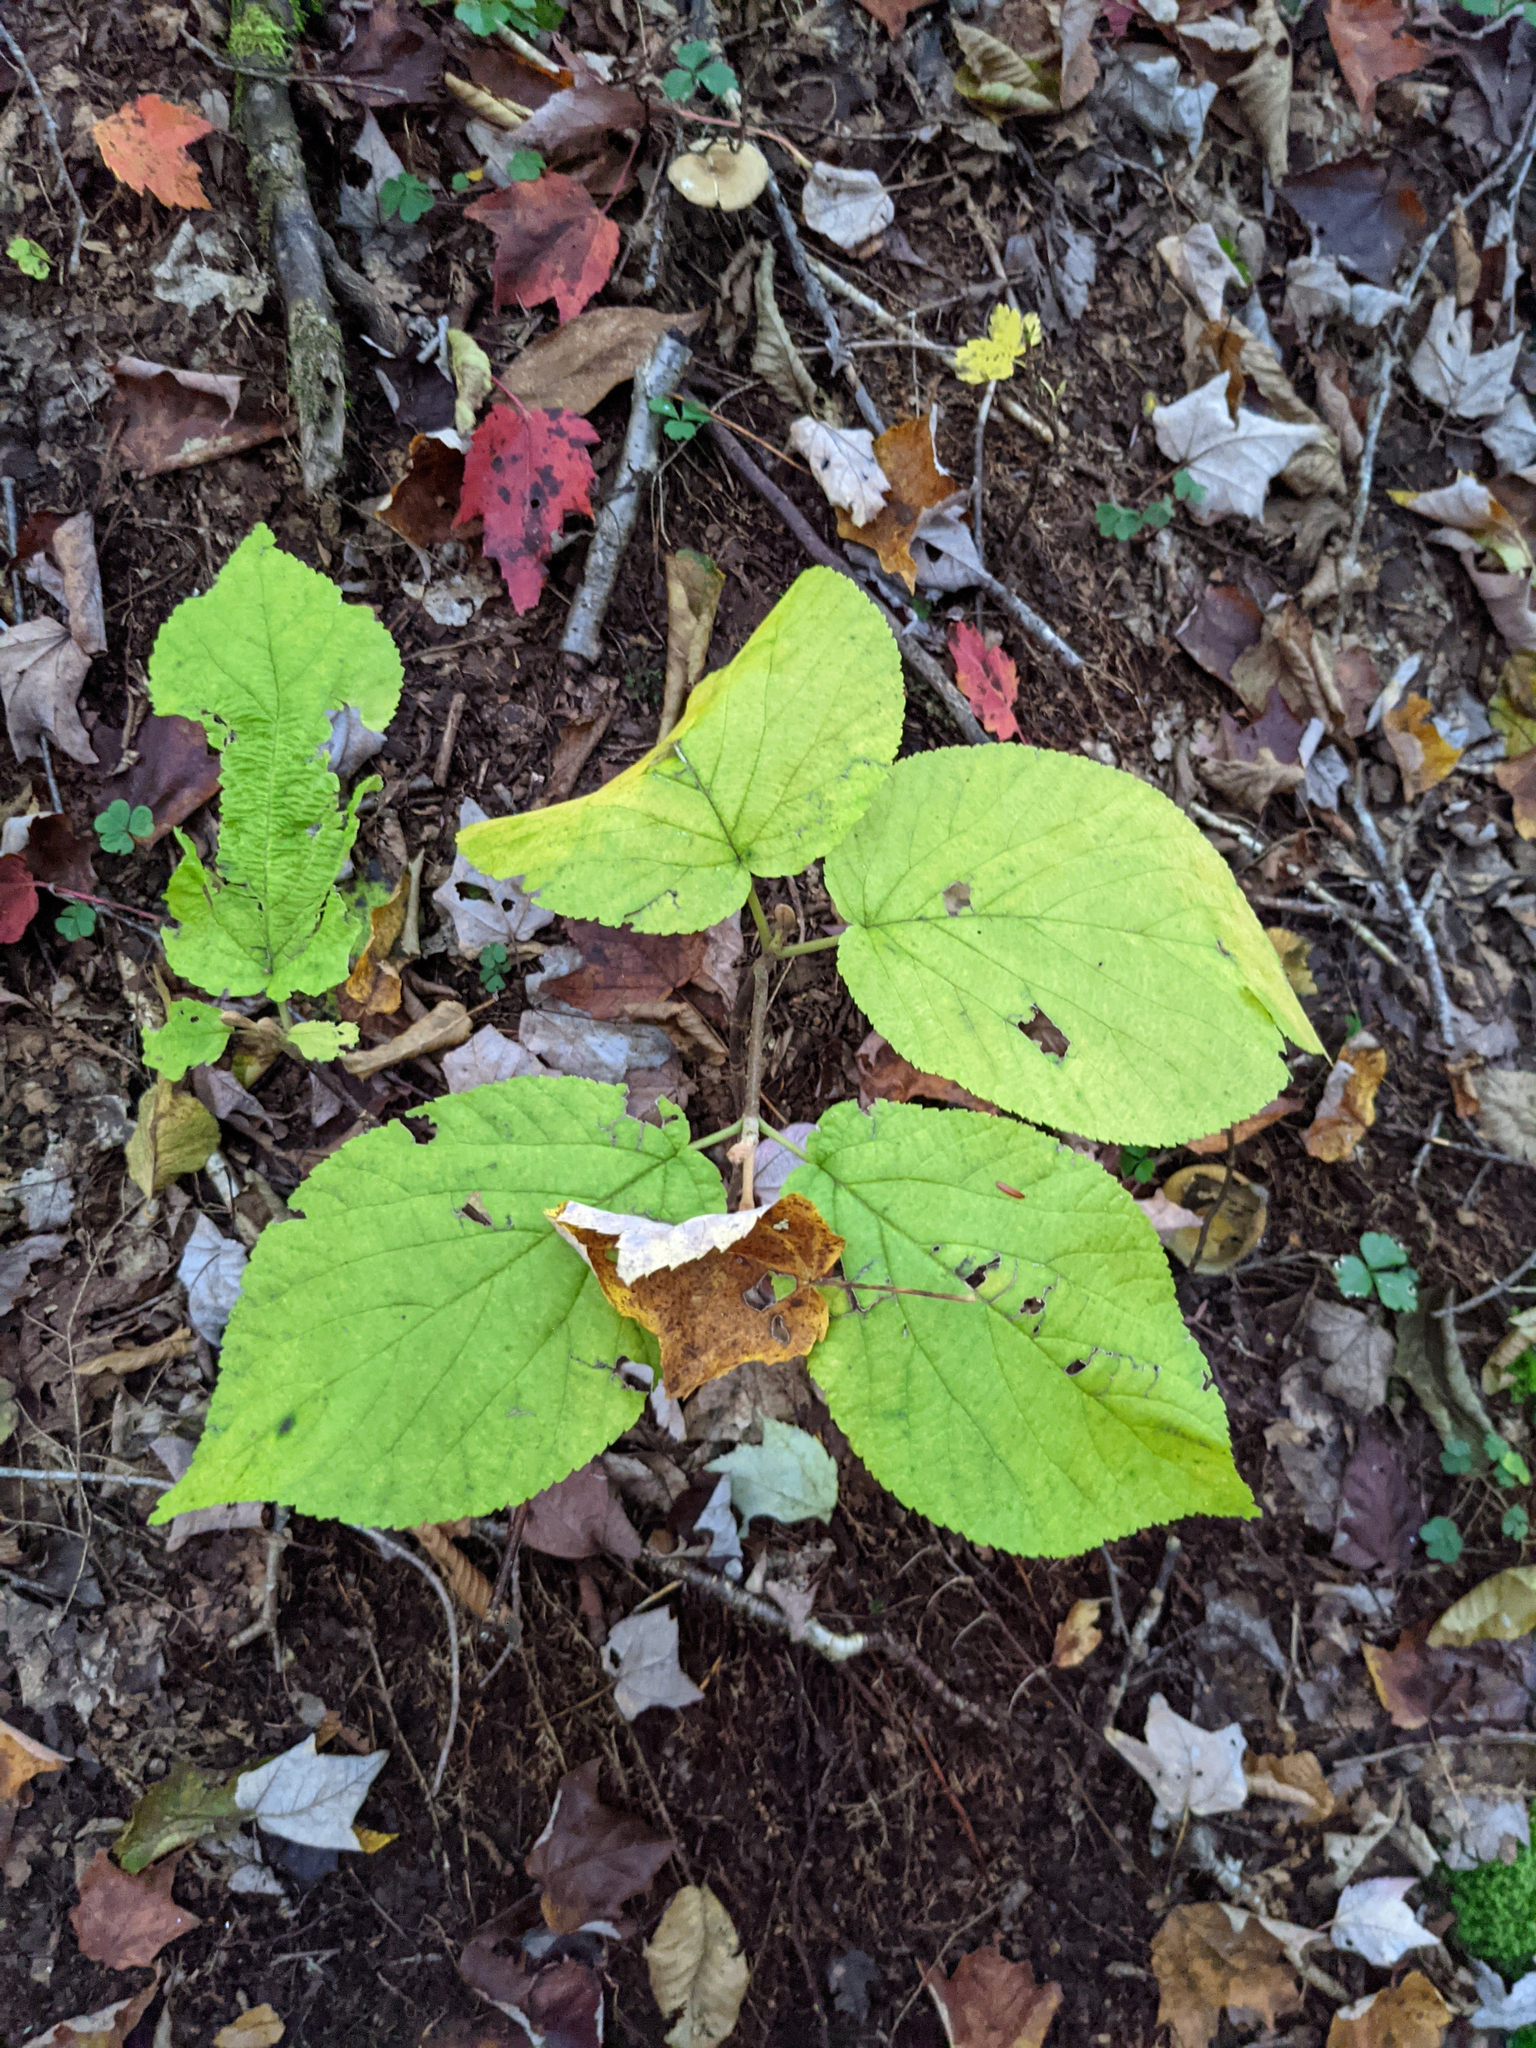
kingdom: Plantae
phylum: Tracheophyta
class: Magnoliopsida
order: Dipsacales
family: Viburnaceae
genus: Viburnum
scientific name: Viburnum lantanoides
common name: Hobblebush
